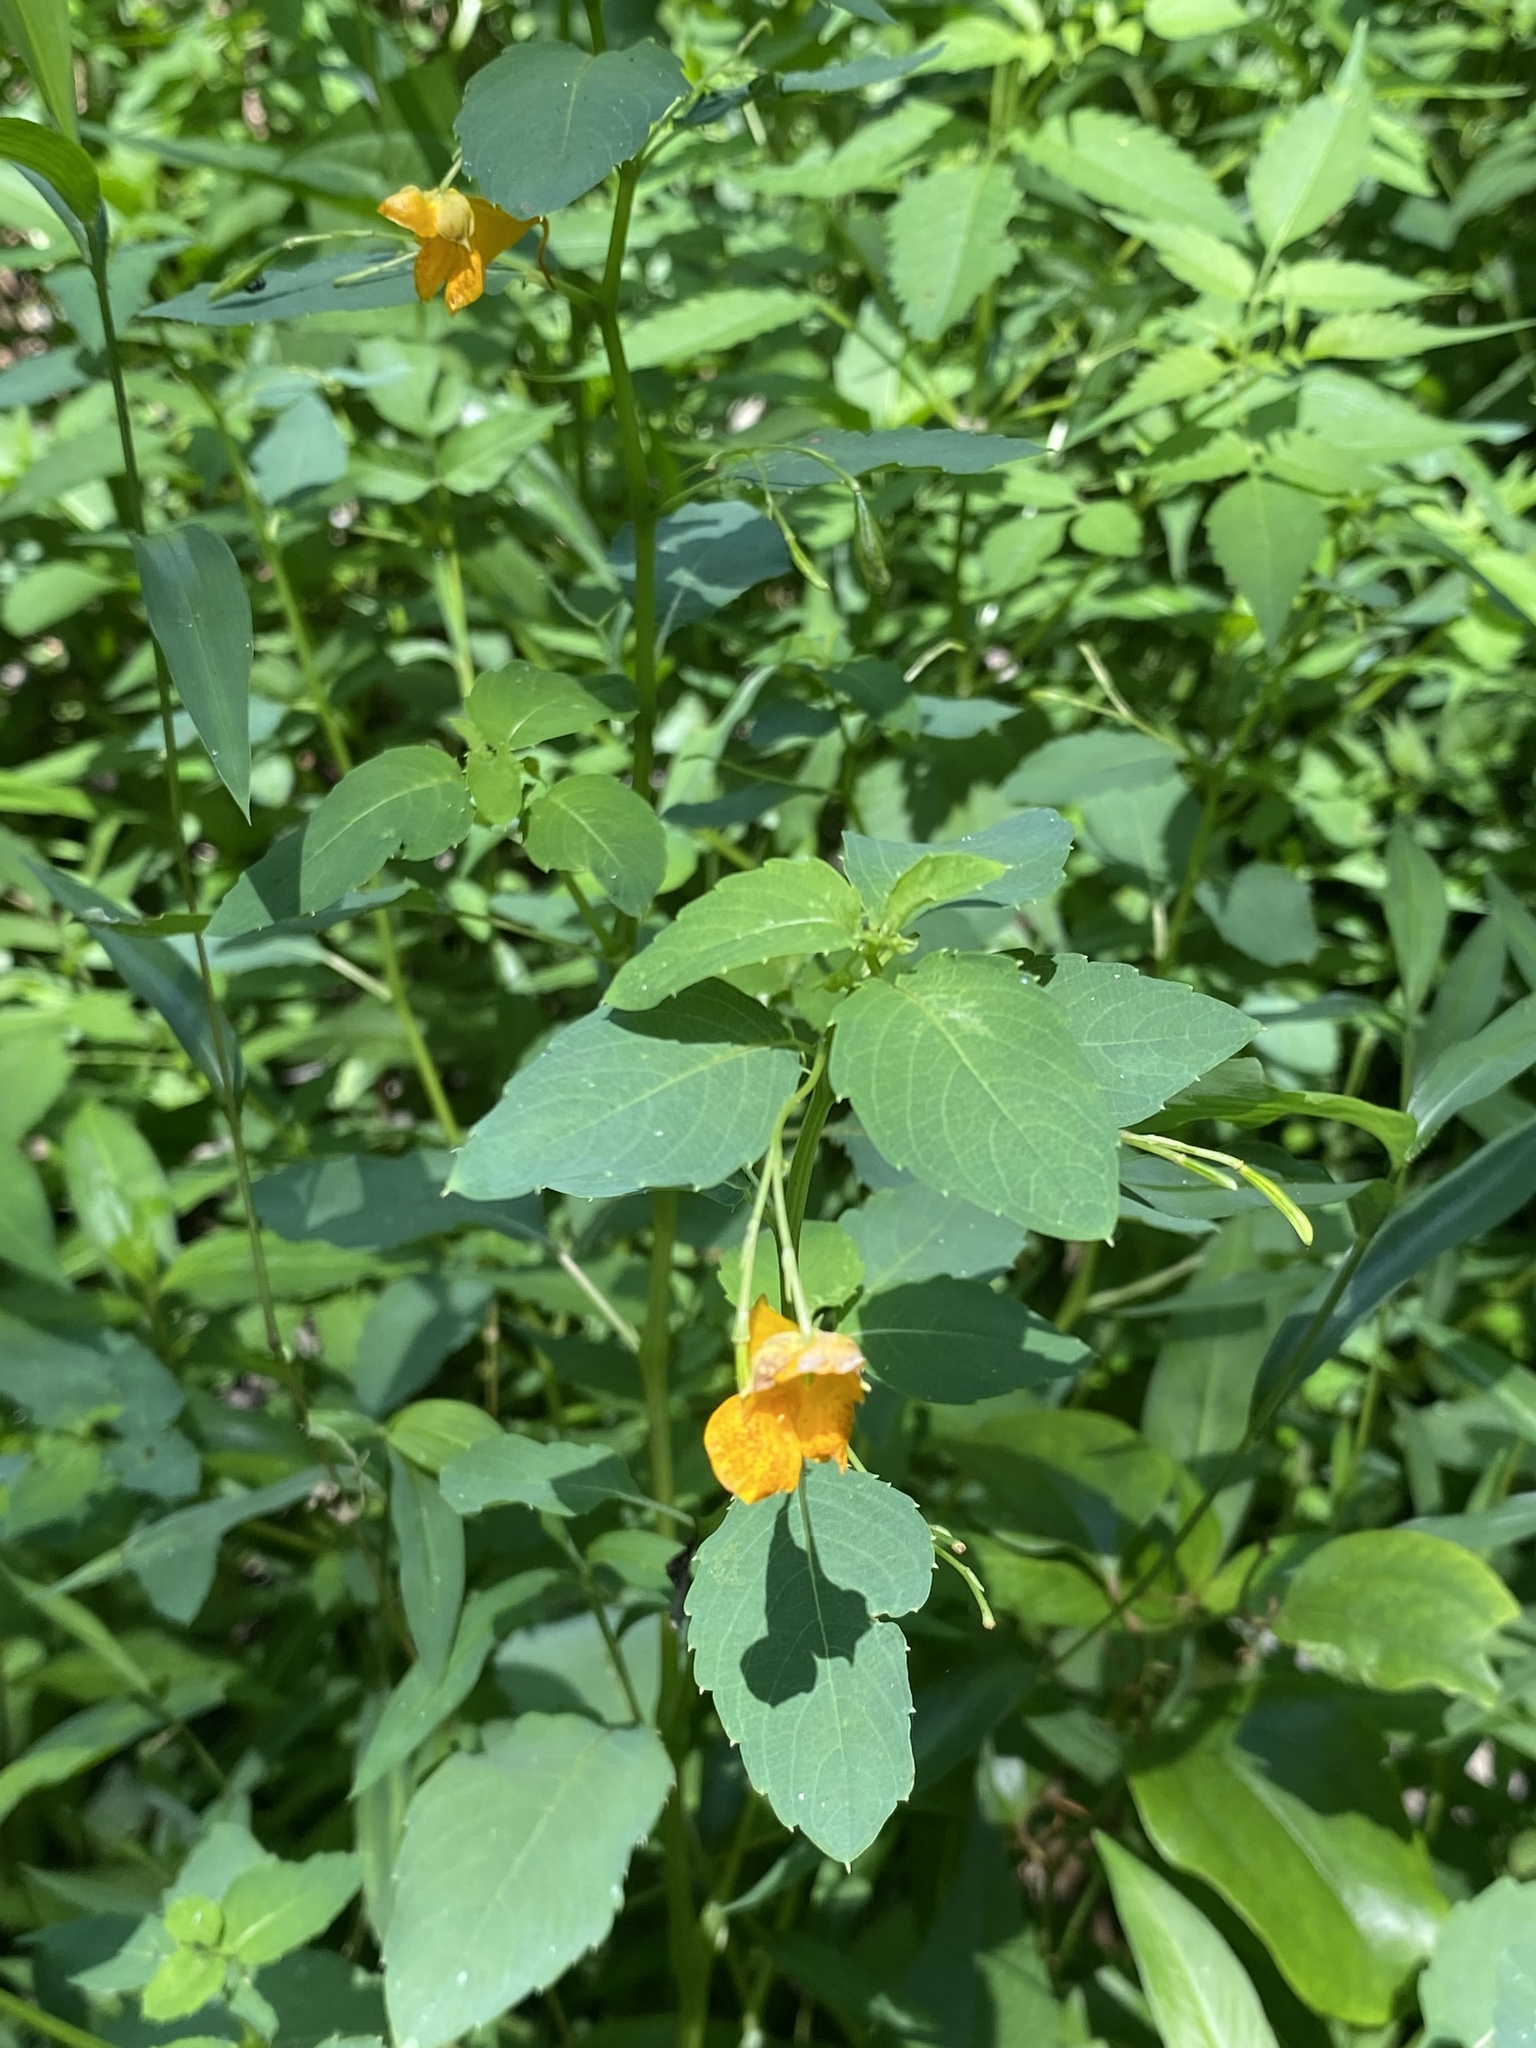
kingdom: Plantae
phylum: Tracheophyta
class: Magnoliopsida
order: Ericales
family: Balsaminaceae
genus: Impatiens
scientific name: Impatiens capensis
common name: Orange balsam
